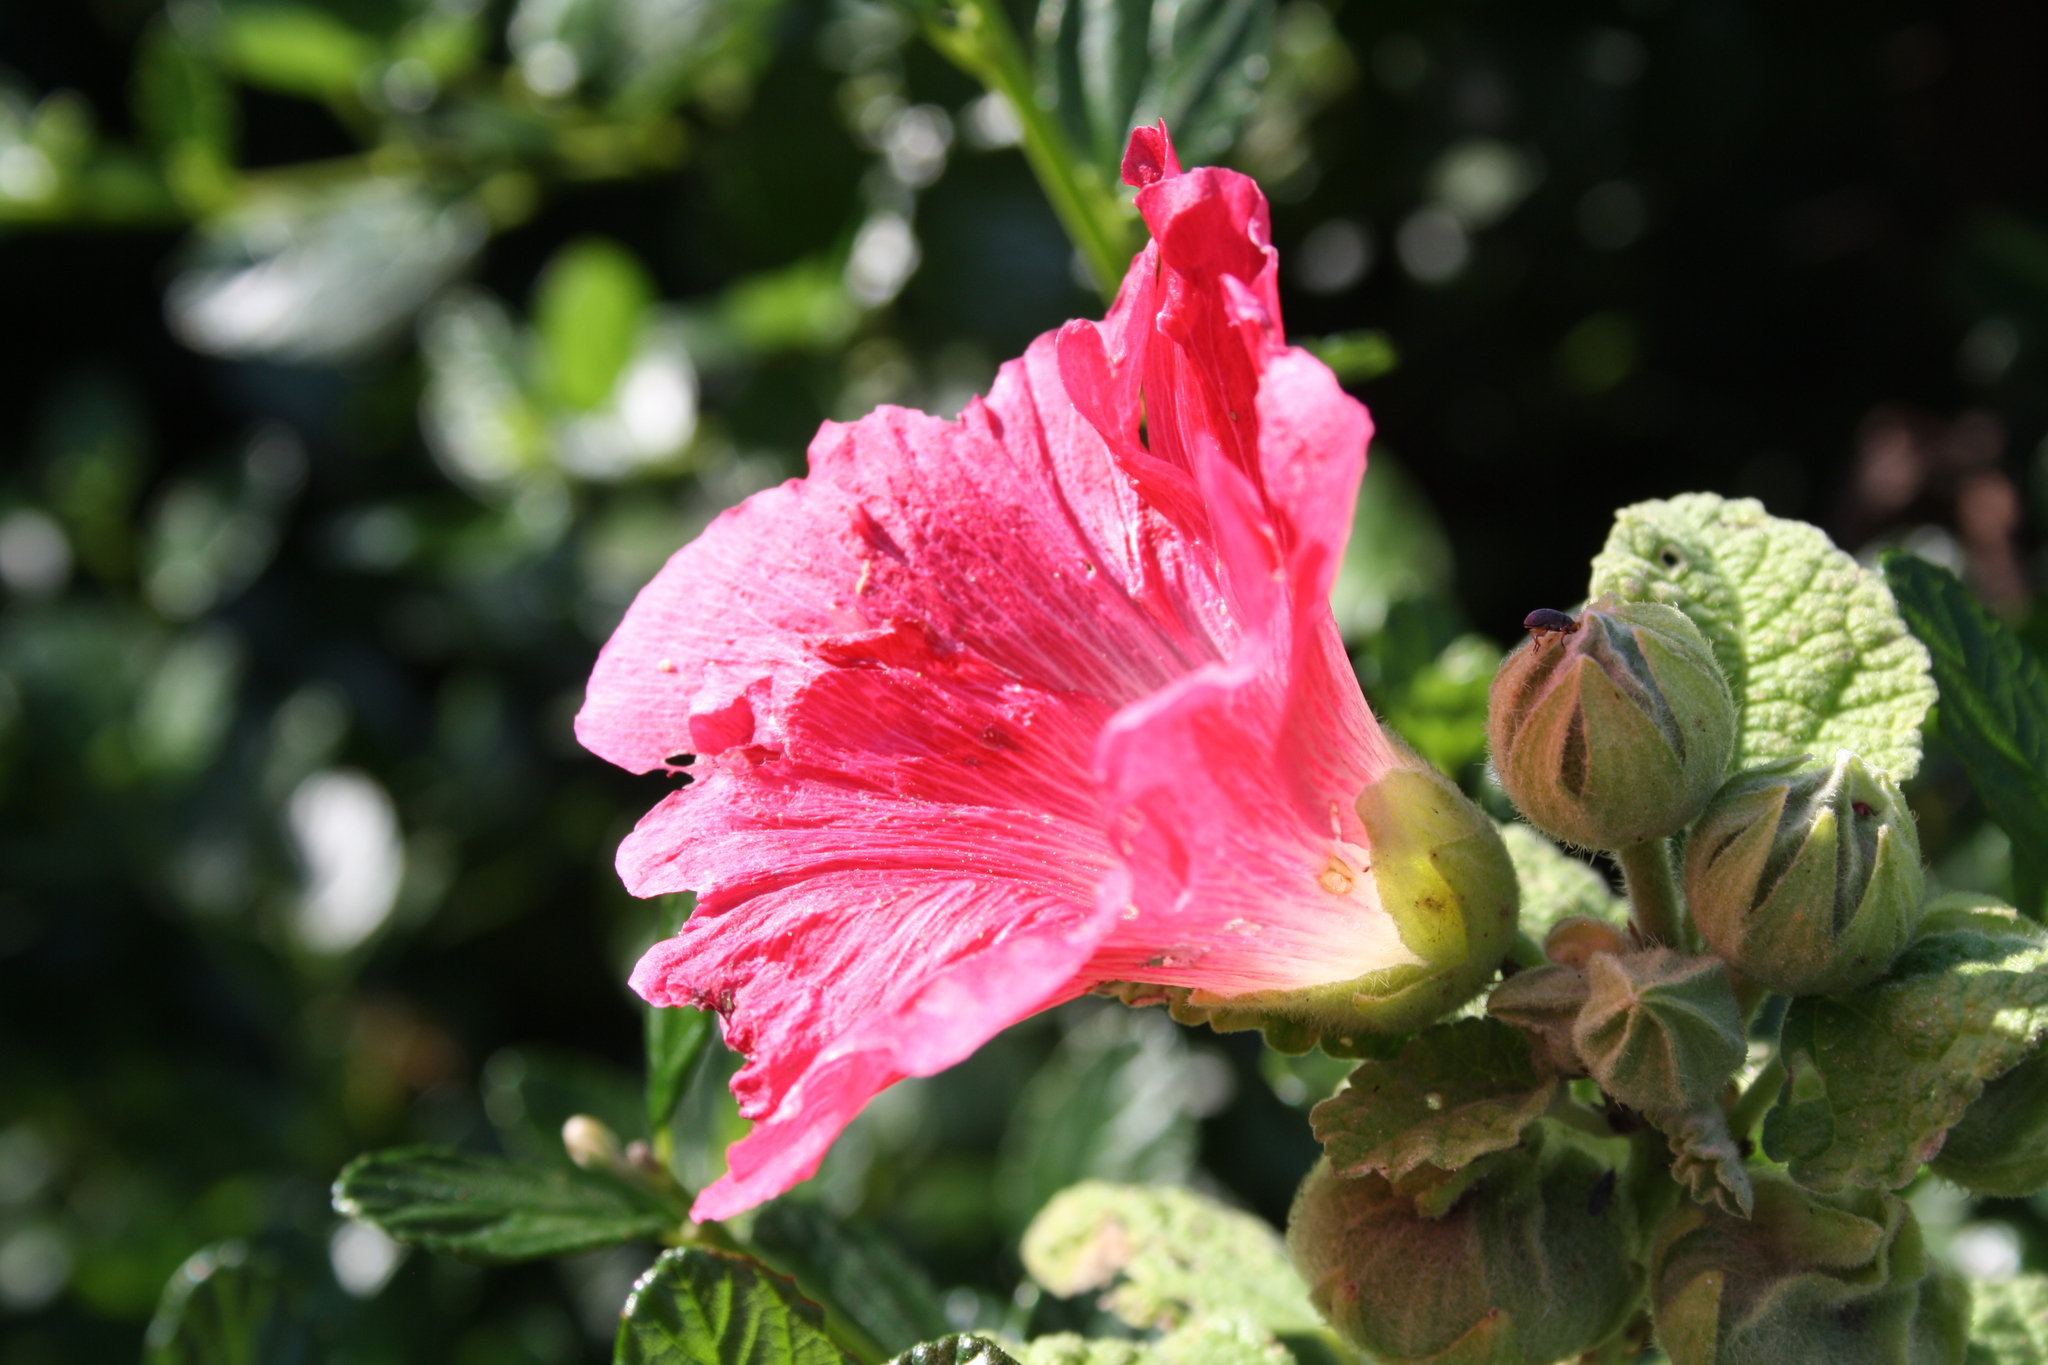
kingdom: Plantae
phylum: Tracheophyta
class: Magnoliopsida
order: Malvales
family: Malvaceae
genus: Alcea
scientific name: Alcea rosea
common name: Hollyhock
